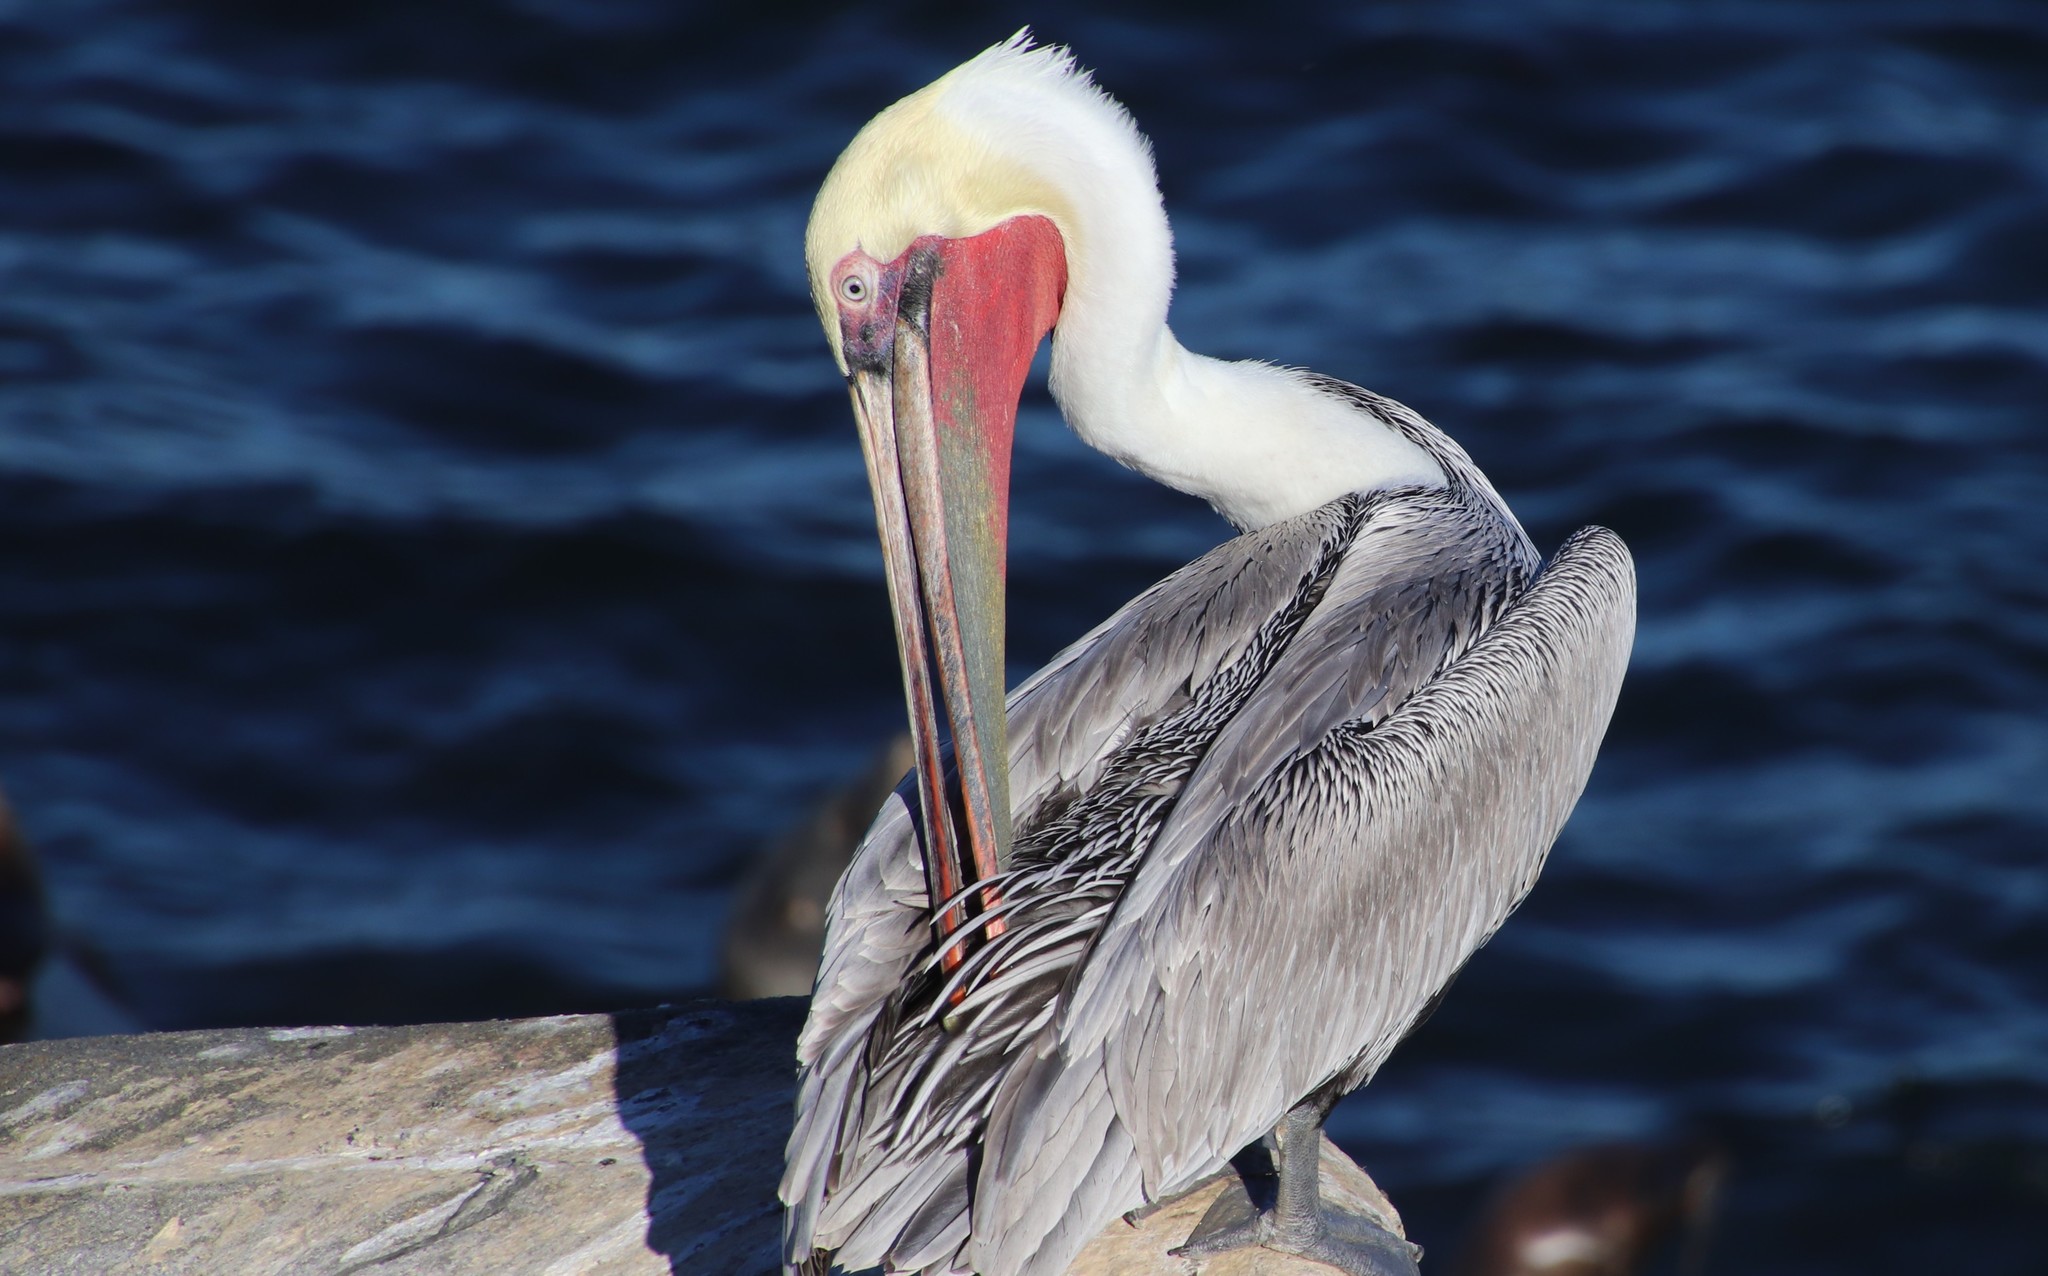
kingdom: Animalia
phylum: Chordata
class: Aves
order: Pelecaniformes
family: Pelecanidae
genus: Pelecanus
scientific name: Pelecanus occidentalis
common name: Brown pelican
